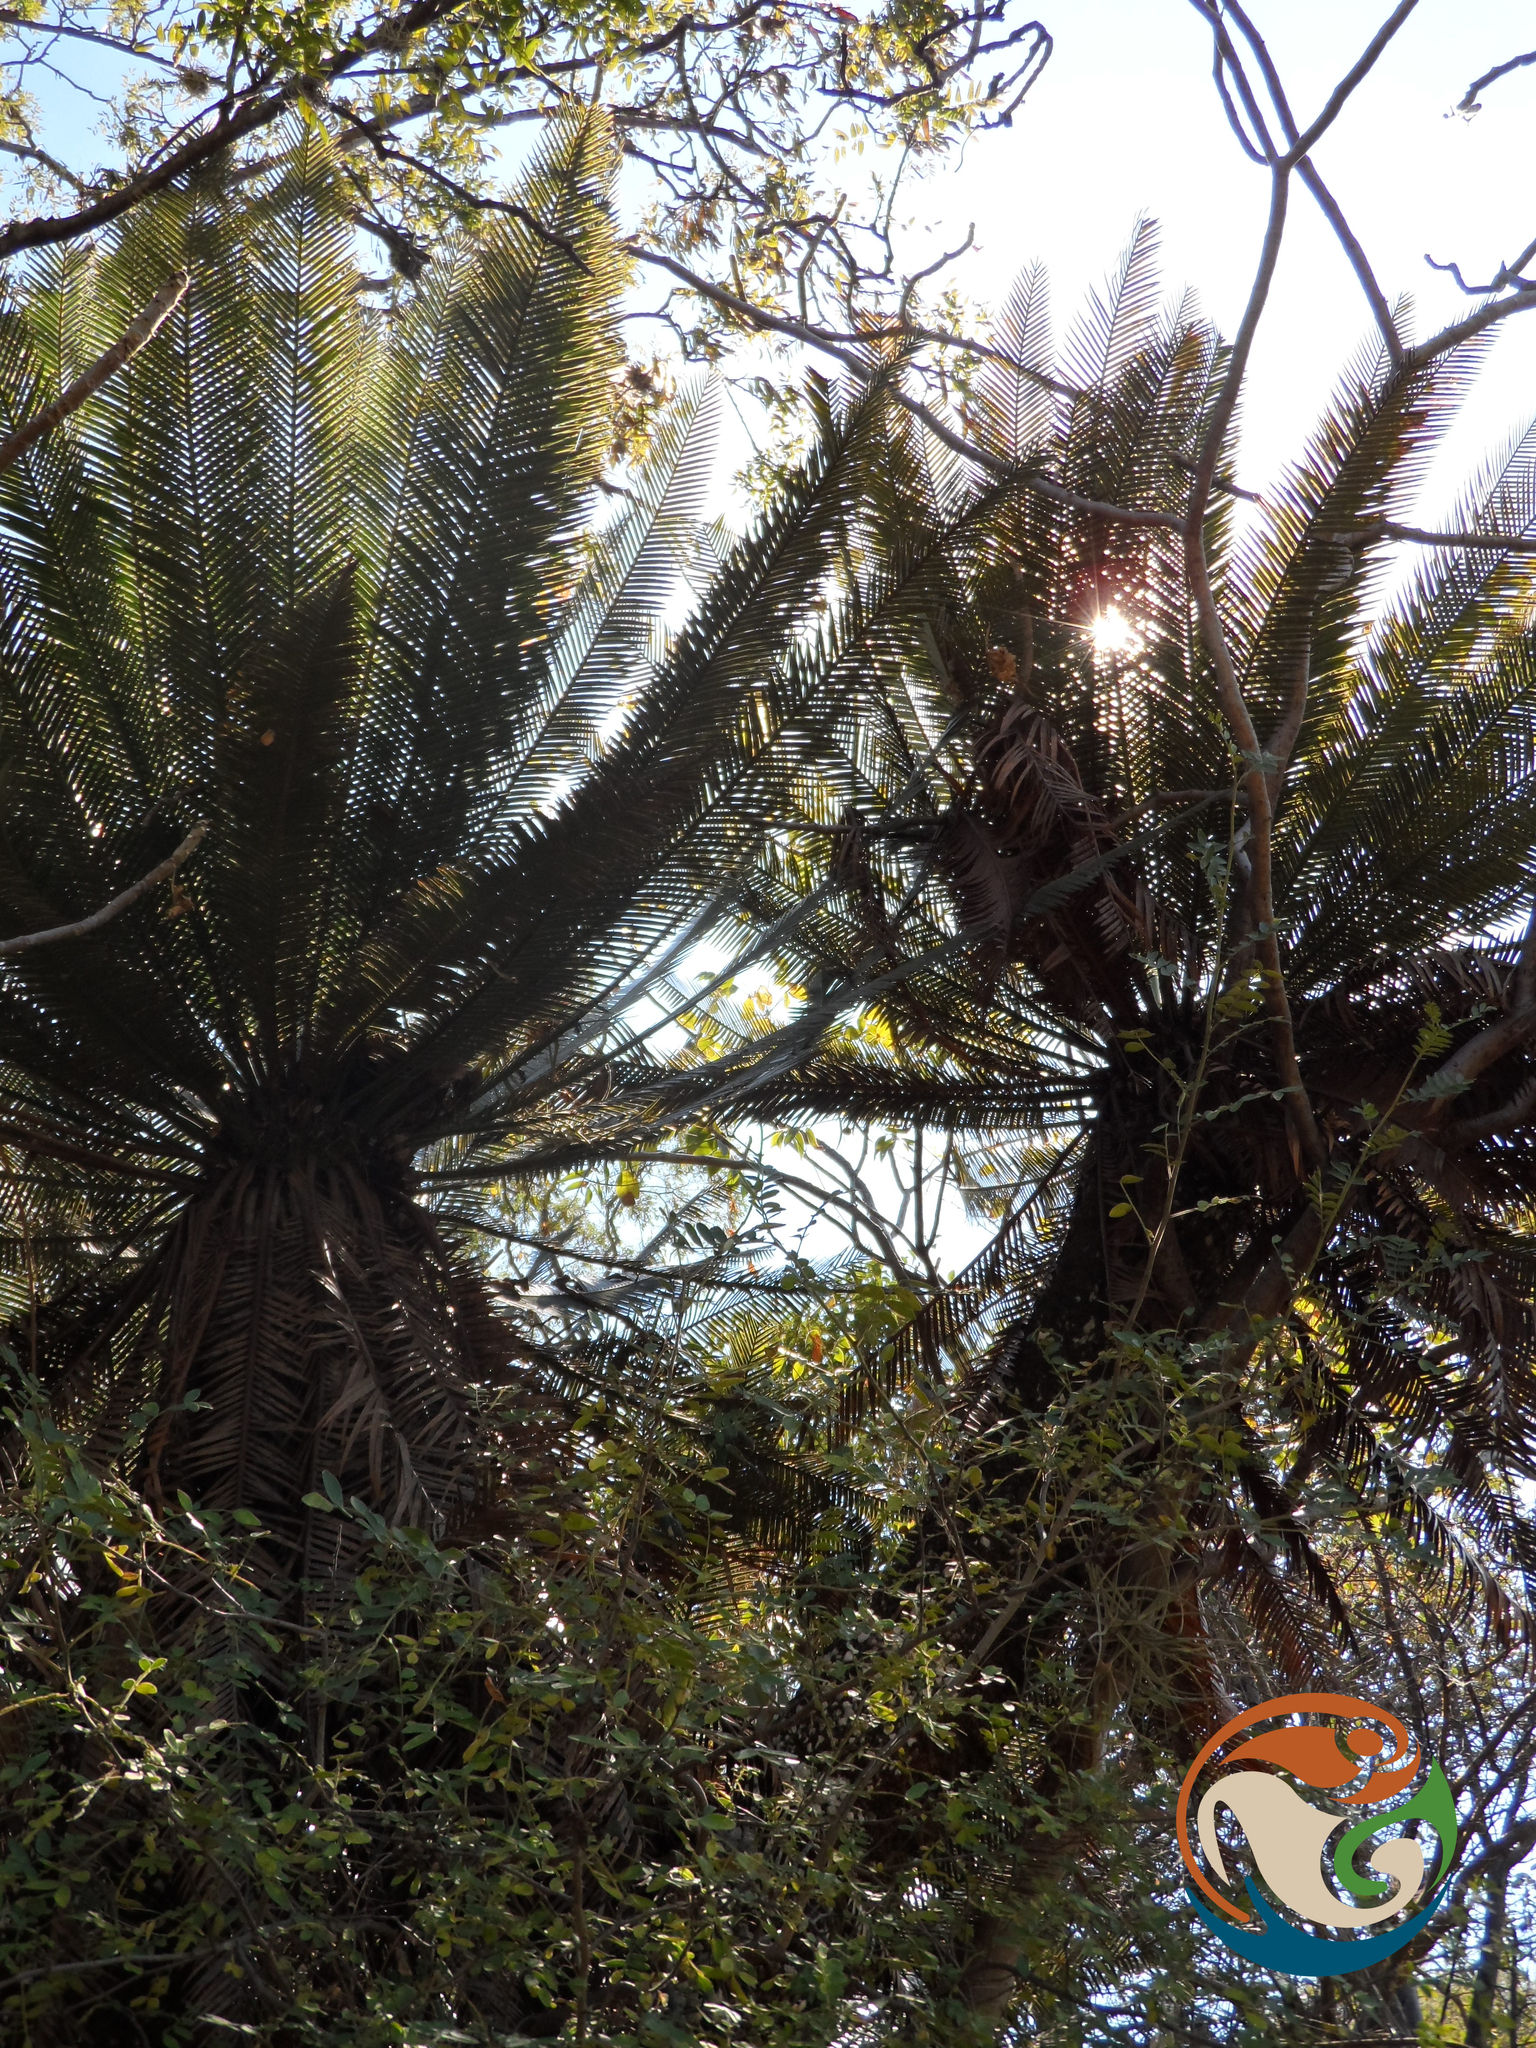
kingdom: Plantae
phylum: Tracheophyta
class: Cycadopsida
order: Cycadales
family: Zamiaceae
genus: Dioon
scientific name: Dioon planifolium
